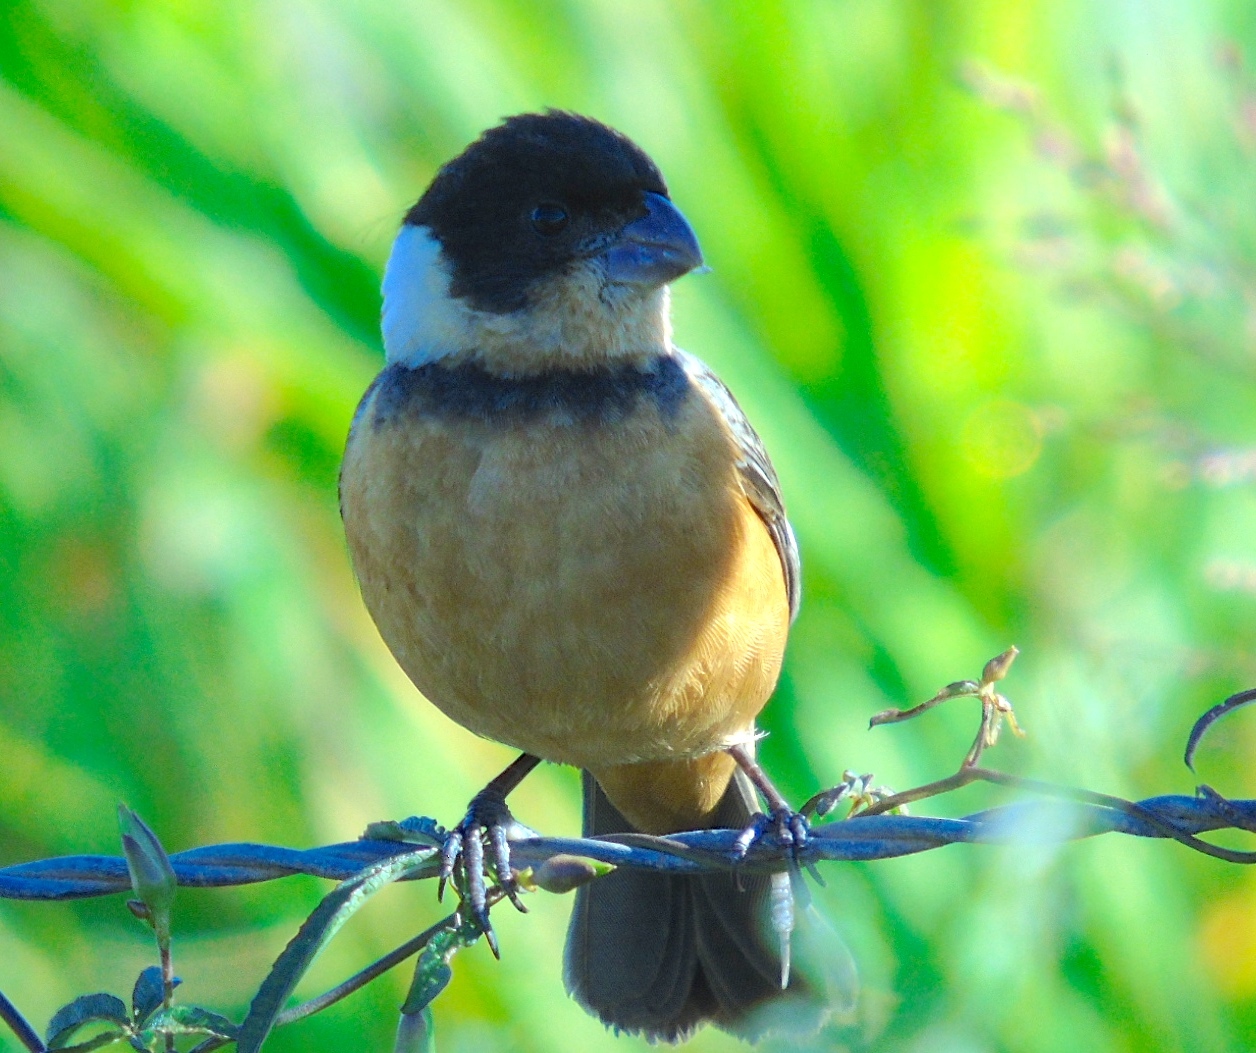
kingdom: Animalia
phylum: Chordata
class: Aves
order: Passeriformes
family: Thraupidae
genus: Sporophila
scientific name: Sporophila torqueola
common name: White-collared seedeater
